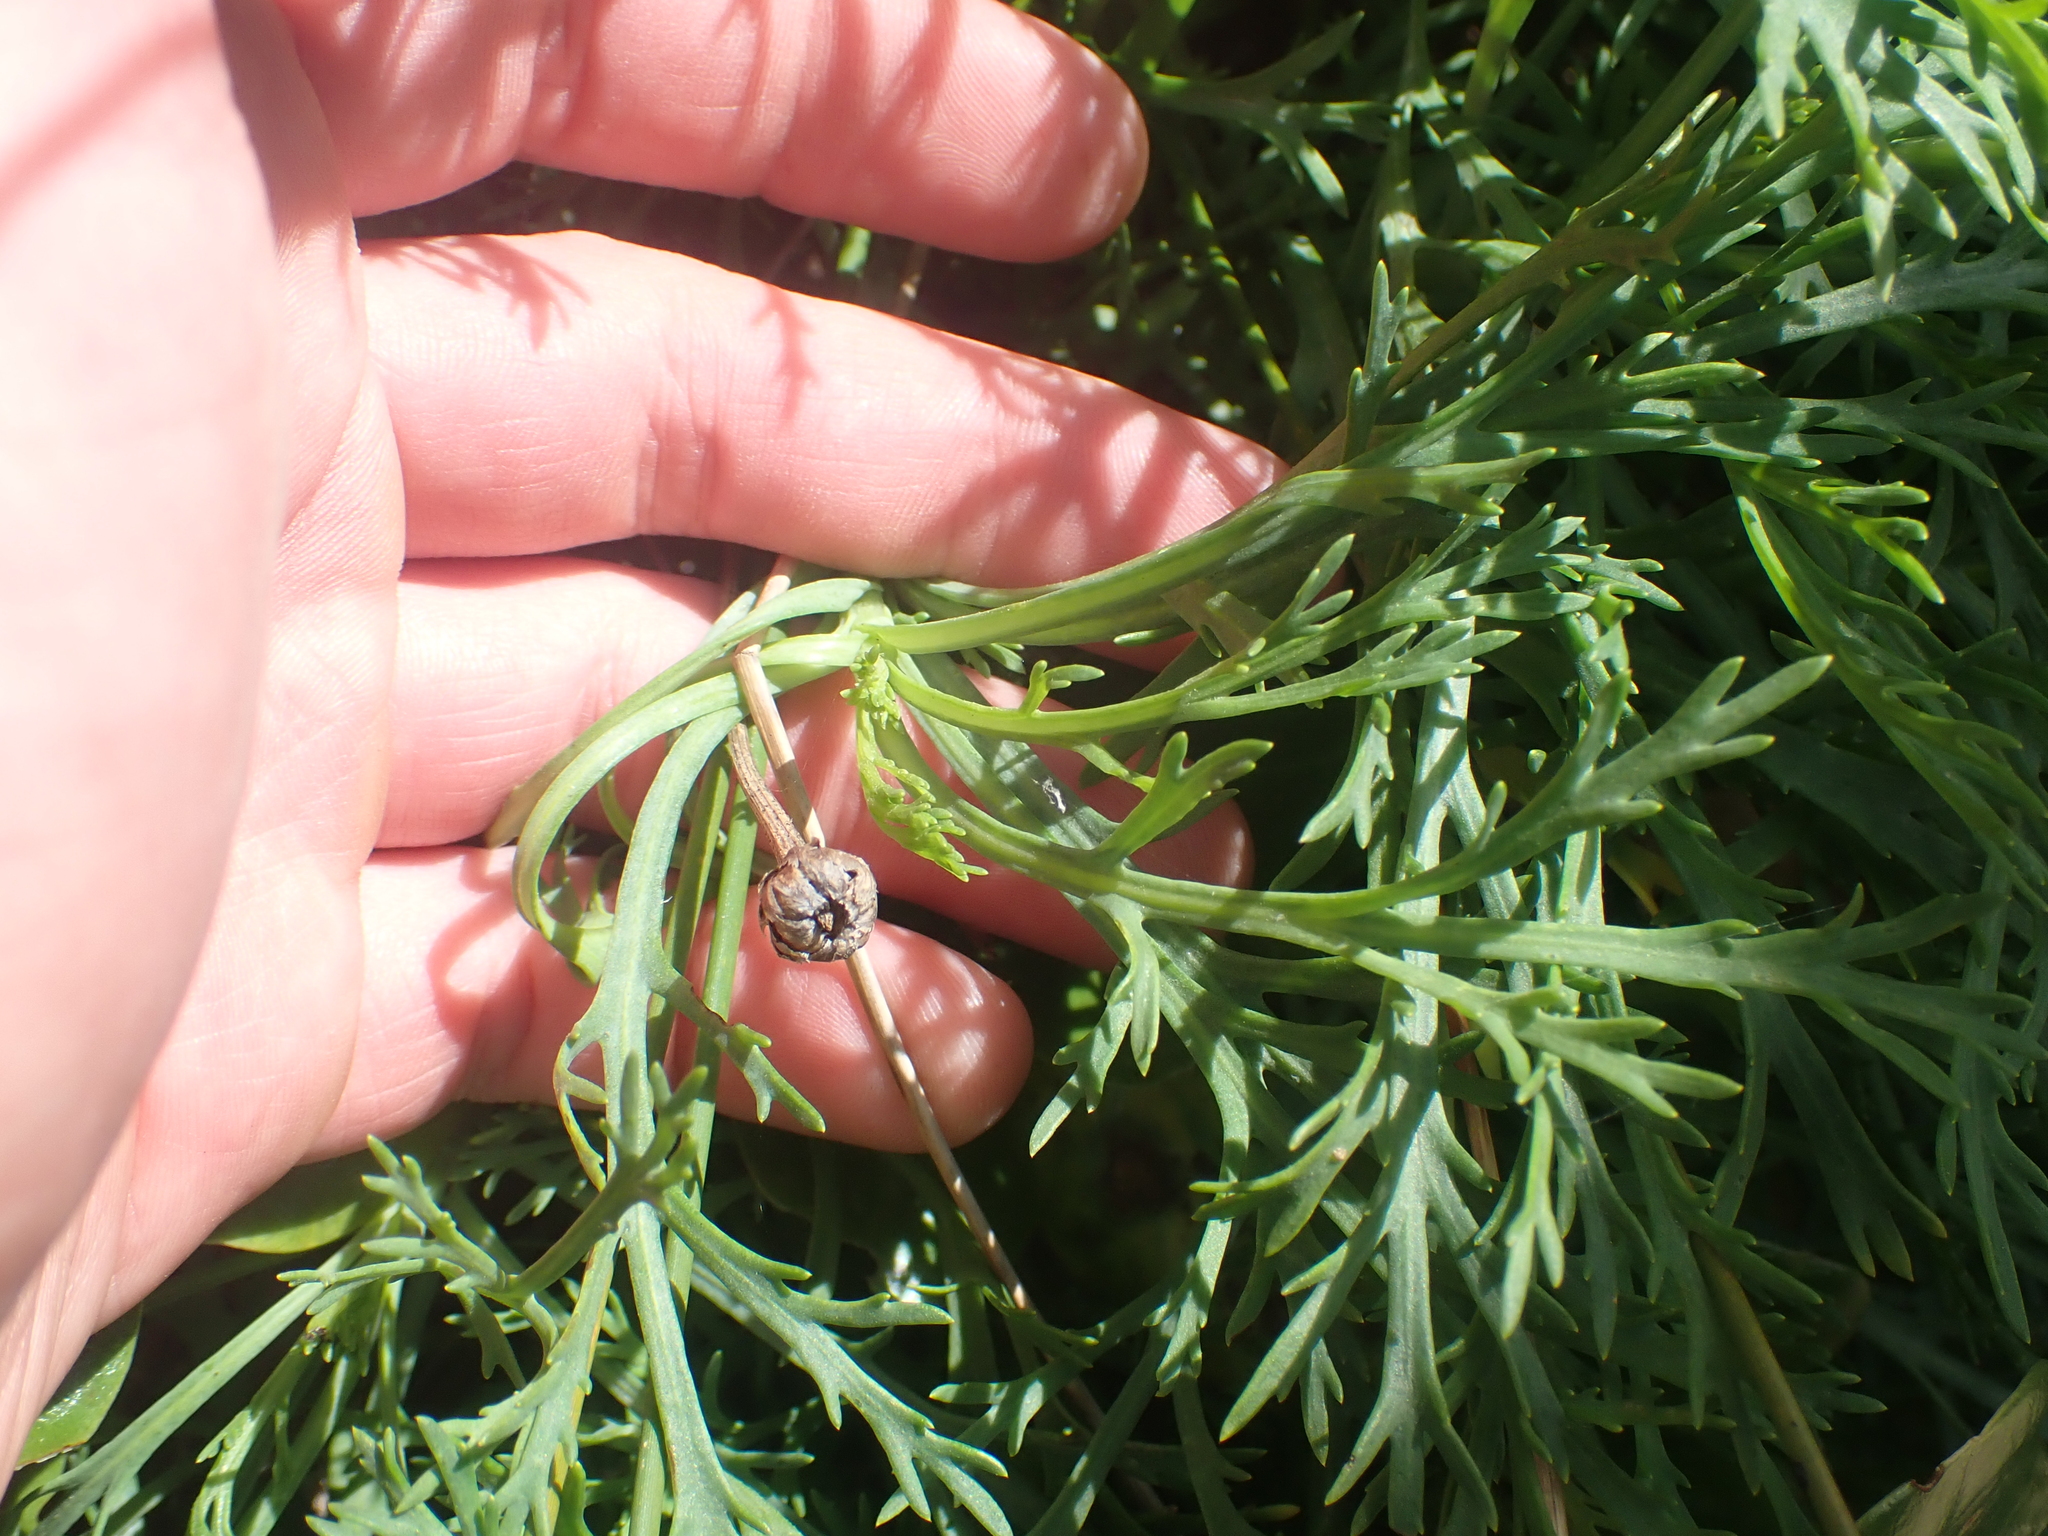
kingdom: Plantae
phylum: Tracheophyta
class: Magnoliopsida
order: Asterales
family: Asteraceae
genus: Argyranthemum
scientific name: Argyranthemum frutescens
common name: Paris daisy
